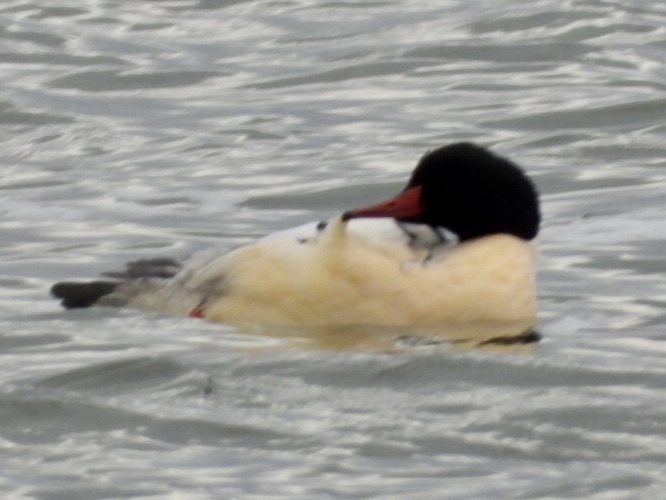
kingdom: Animalia
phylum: Chordata
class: Aves
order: Anseriformes
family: Anatidae
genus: Mergus
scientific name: Mergus merganser
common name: Common merganser
